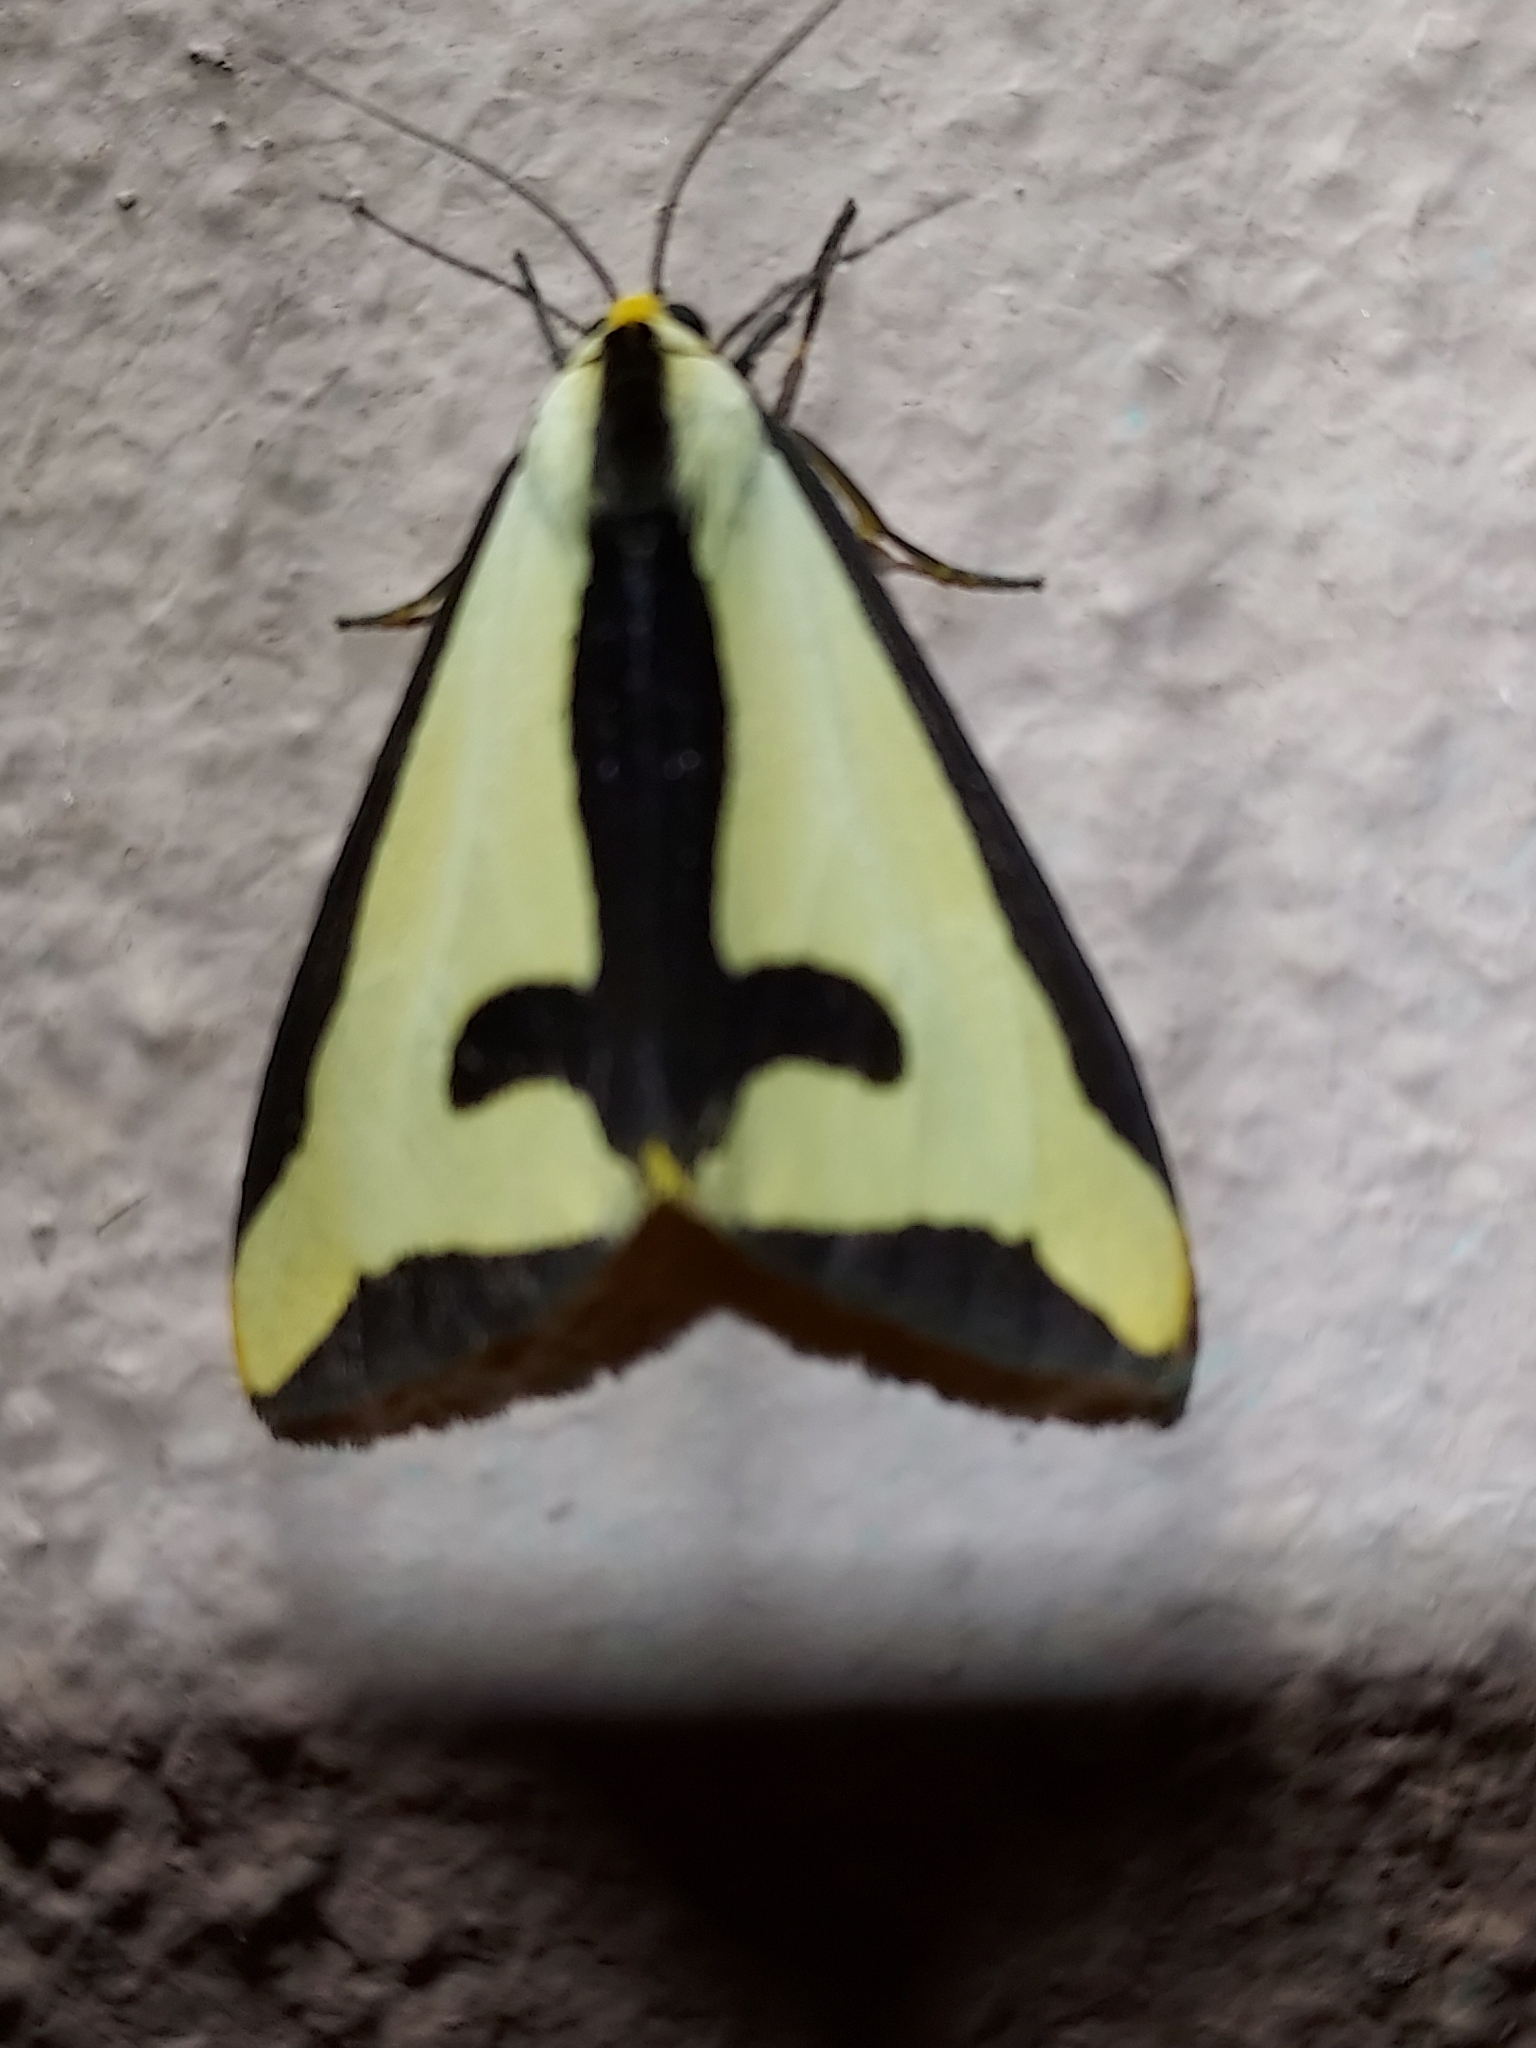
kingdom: Animalia
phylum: Arthropoda
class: Insecta
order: Lepidoptera
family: Erebidae
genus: Haploa
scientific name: Haploa clymene
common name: Clymene moth
